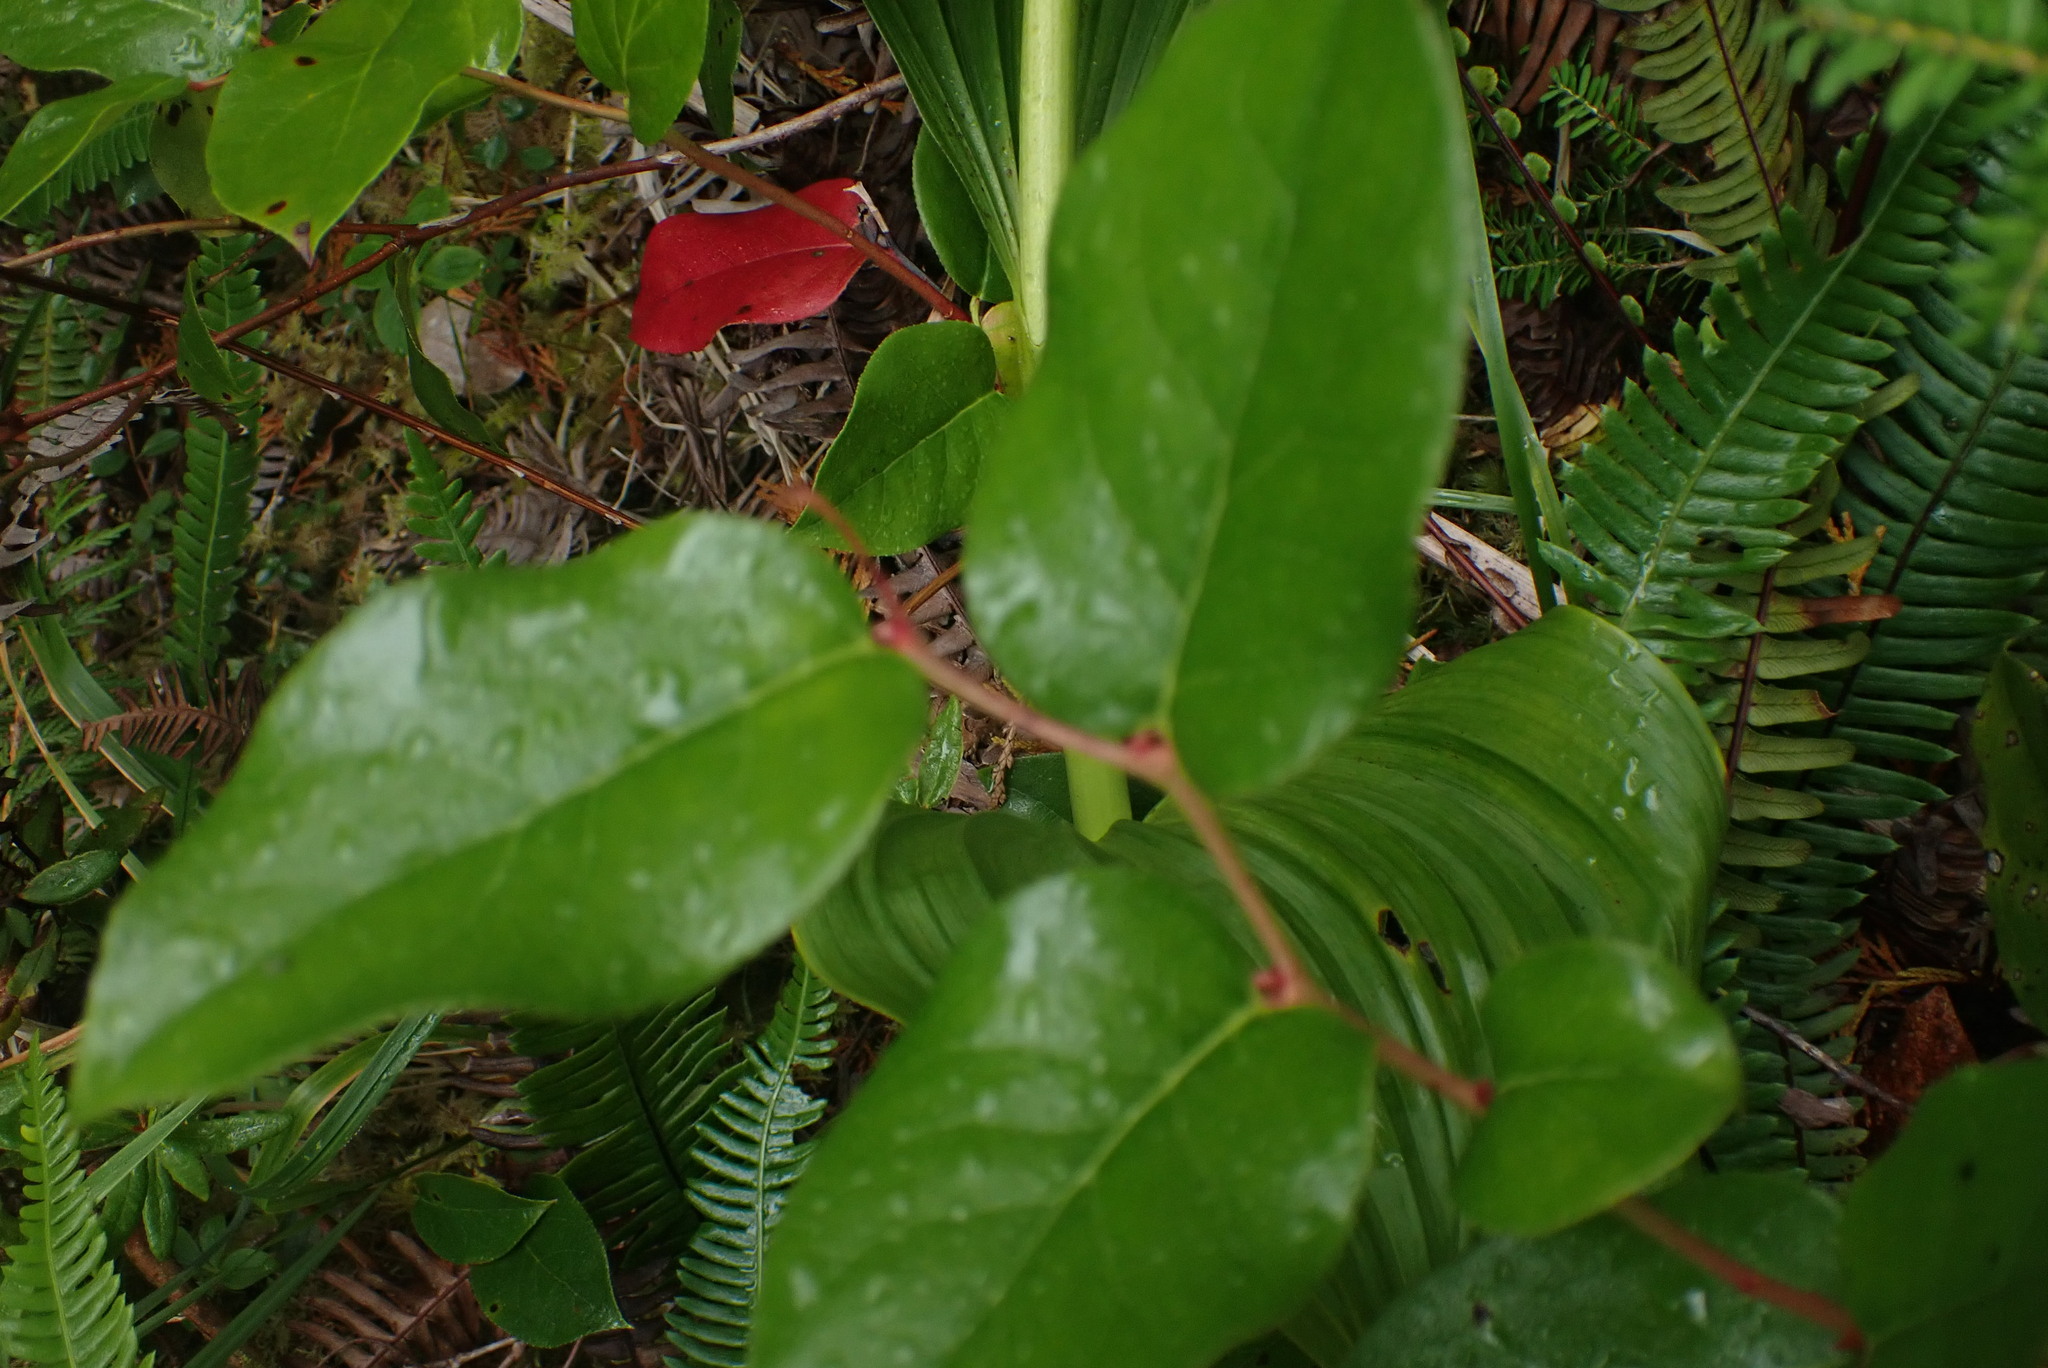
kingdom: Plantae
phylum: Tracheophyta
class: Magnoliopsida
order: Ericales
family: Ericaceae
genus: Gaultheria
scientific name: Gaultheria shallon
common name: Shallon
